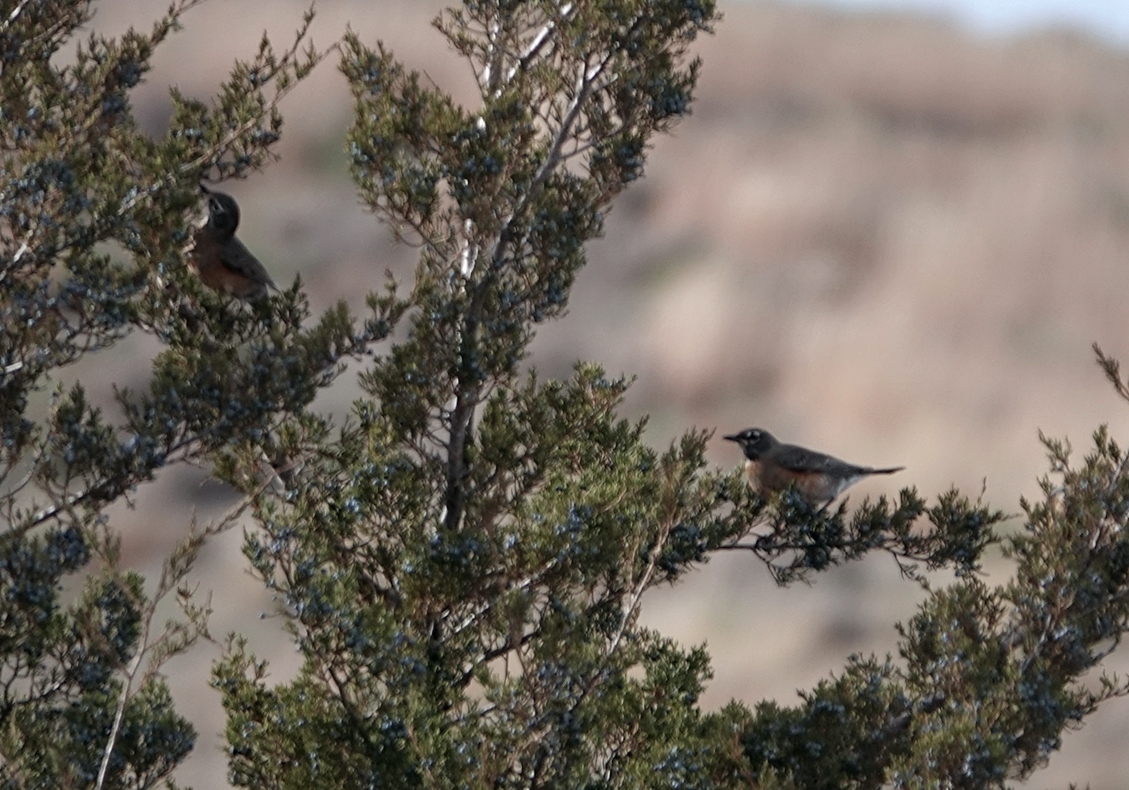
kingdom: Animalia
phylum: Chordata
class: Aves
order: Passeriformes
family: Turdidae
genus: Turdus
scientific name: Turdus migratorius
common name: American robin
